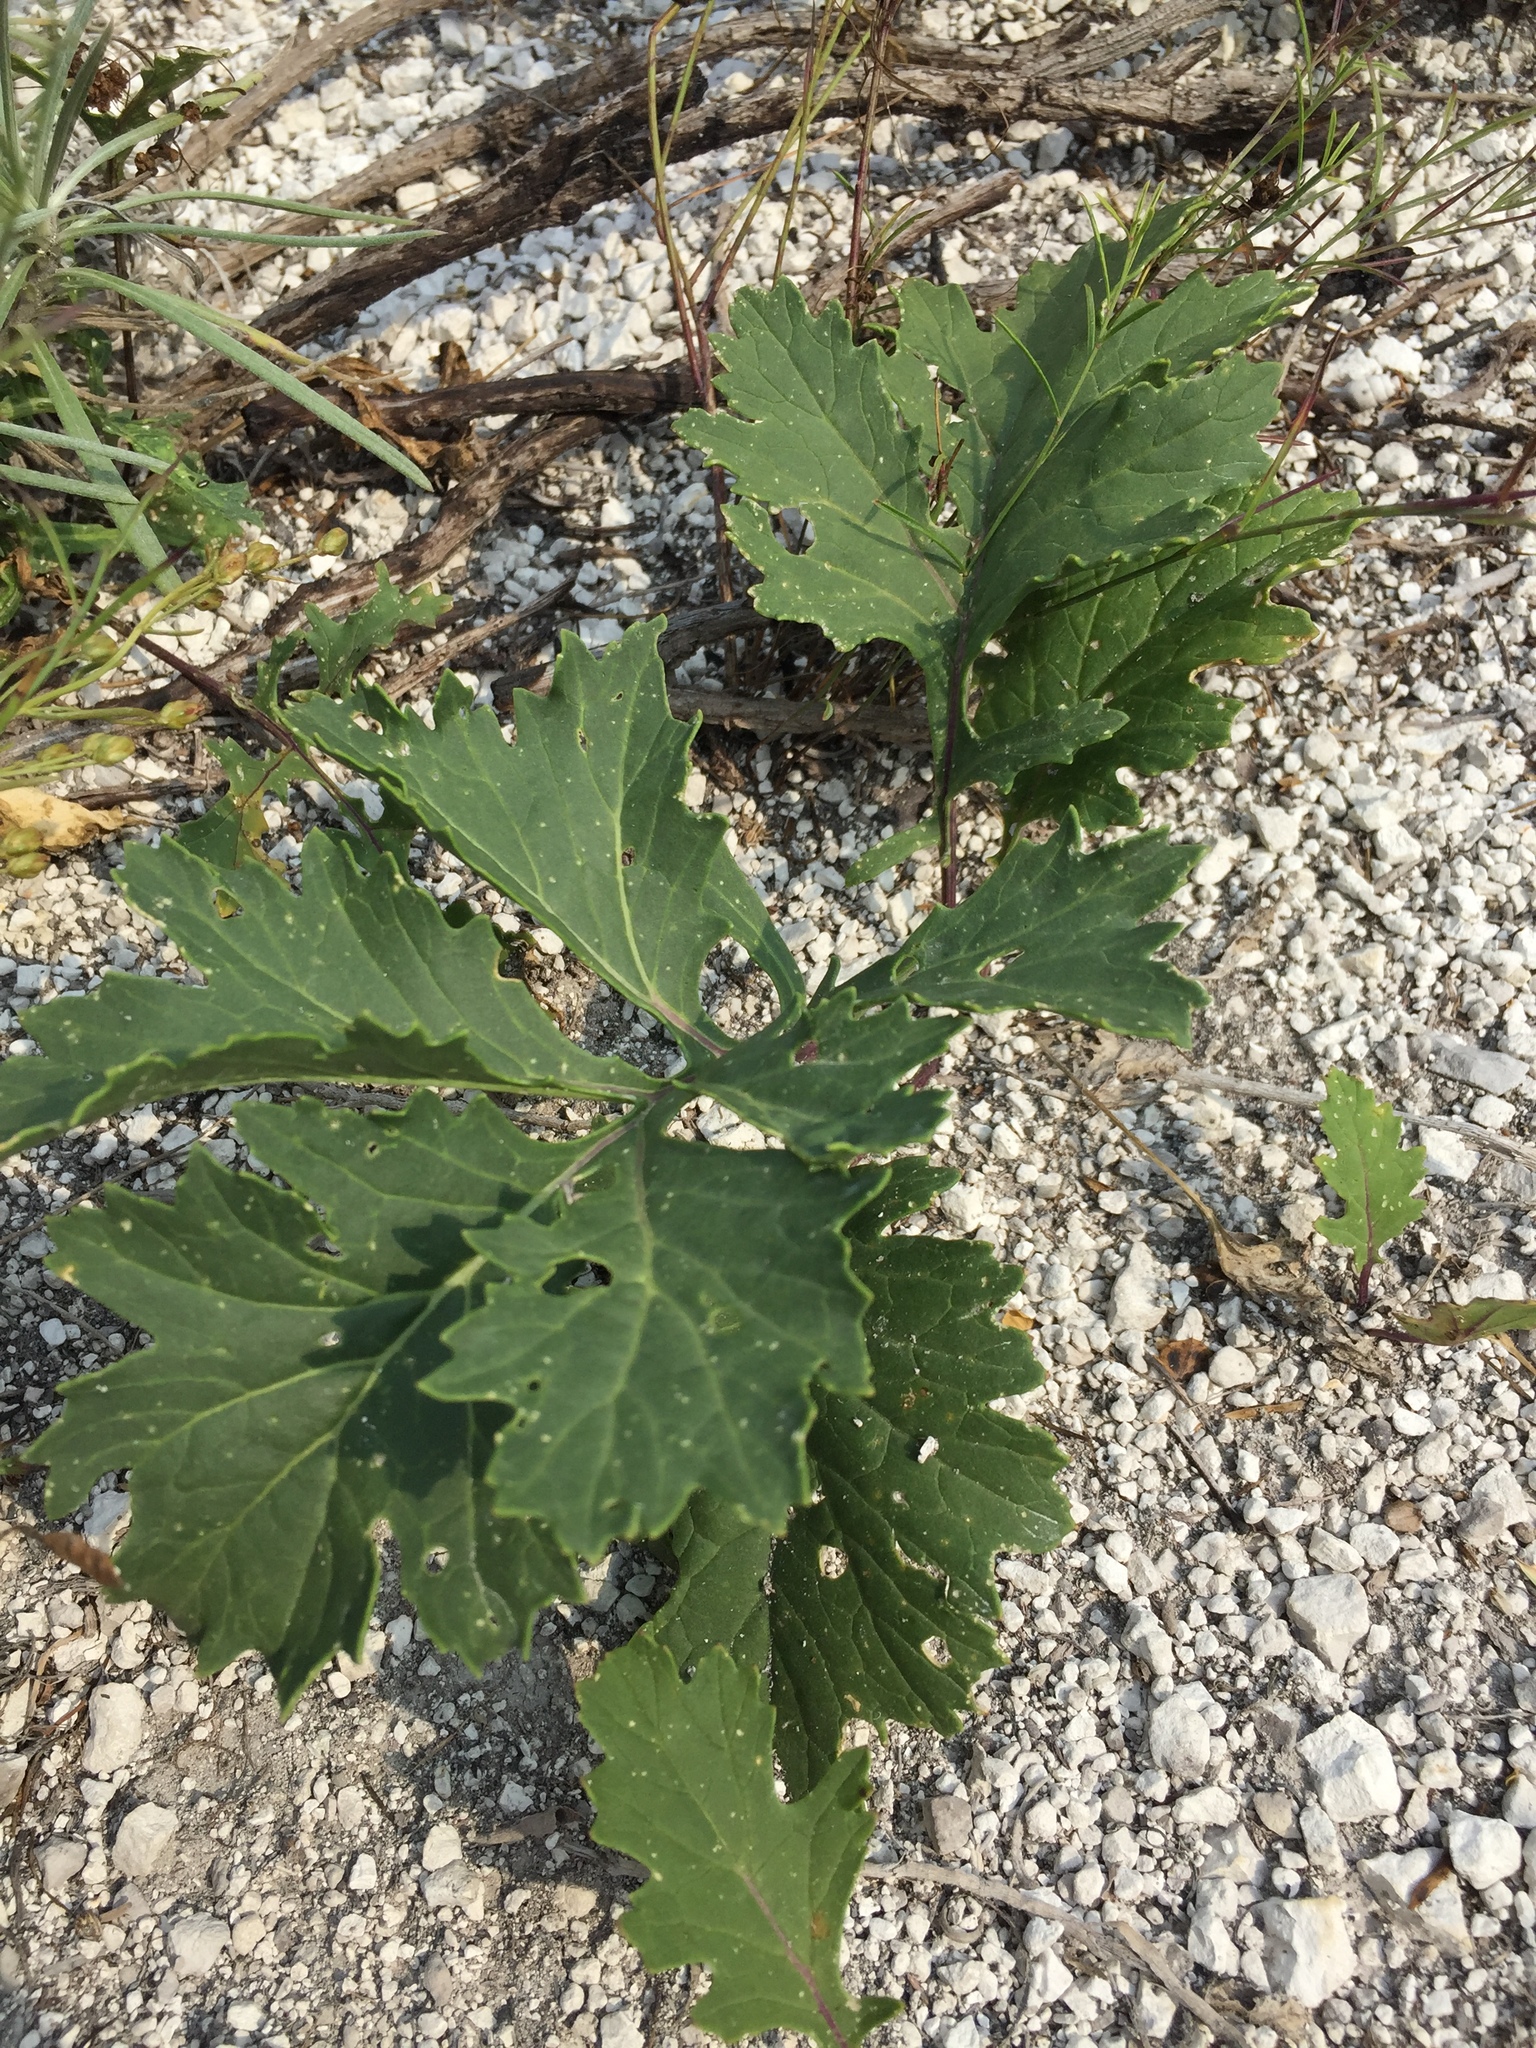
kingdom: Plantae
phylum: Tracheophyta
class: Magnoliopsida
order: Brassicales
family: Brassicaceae
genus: Crambe
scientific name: Crambe tataria
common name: Tartarian breadplant
